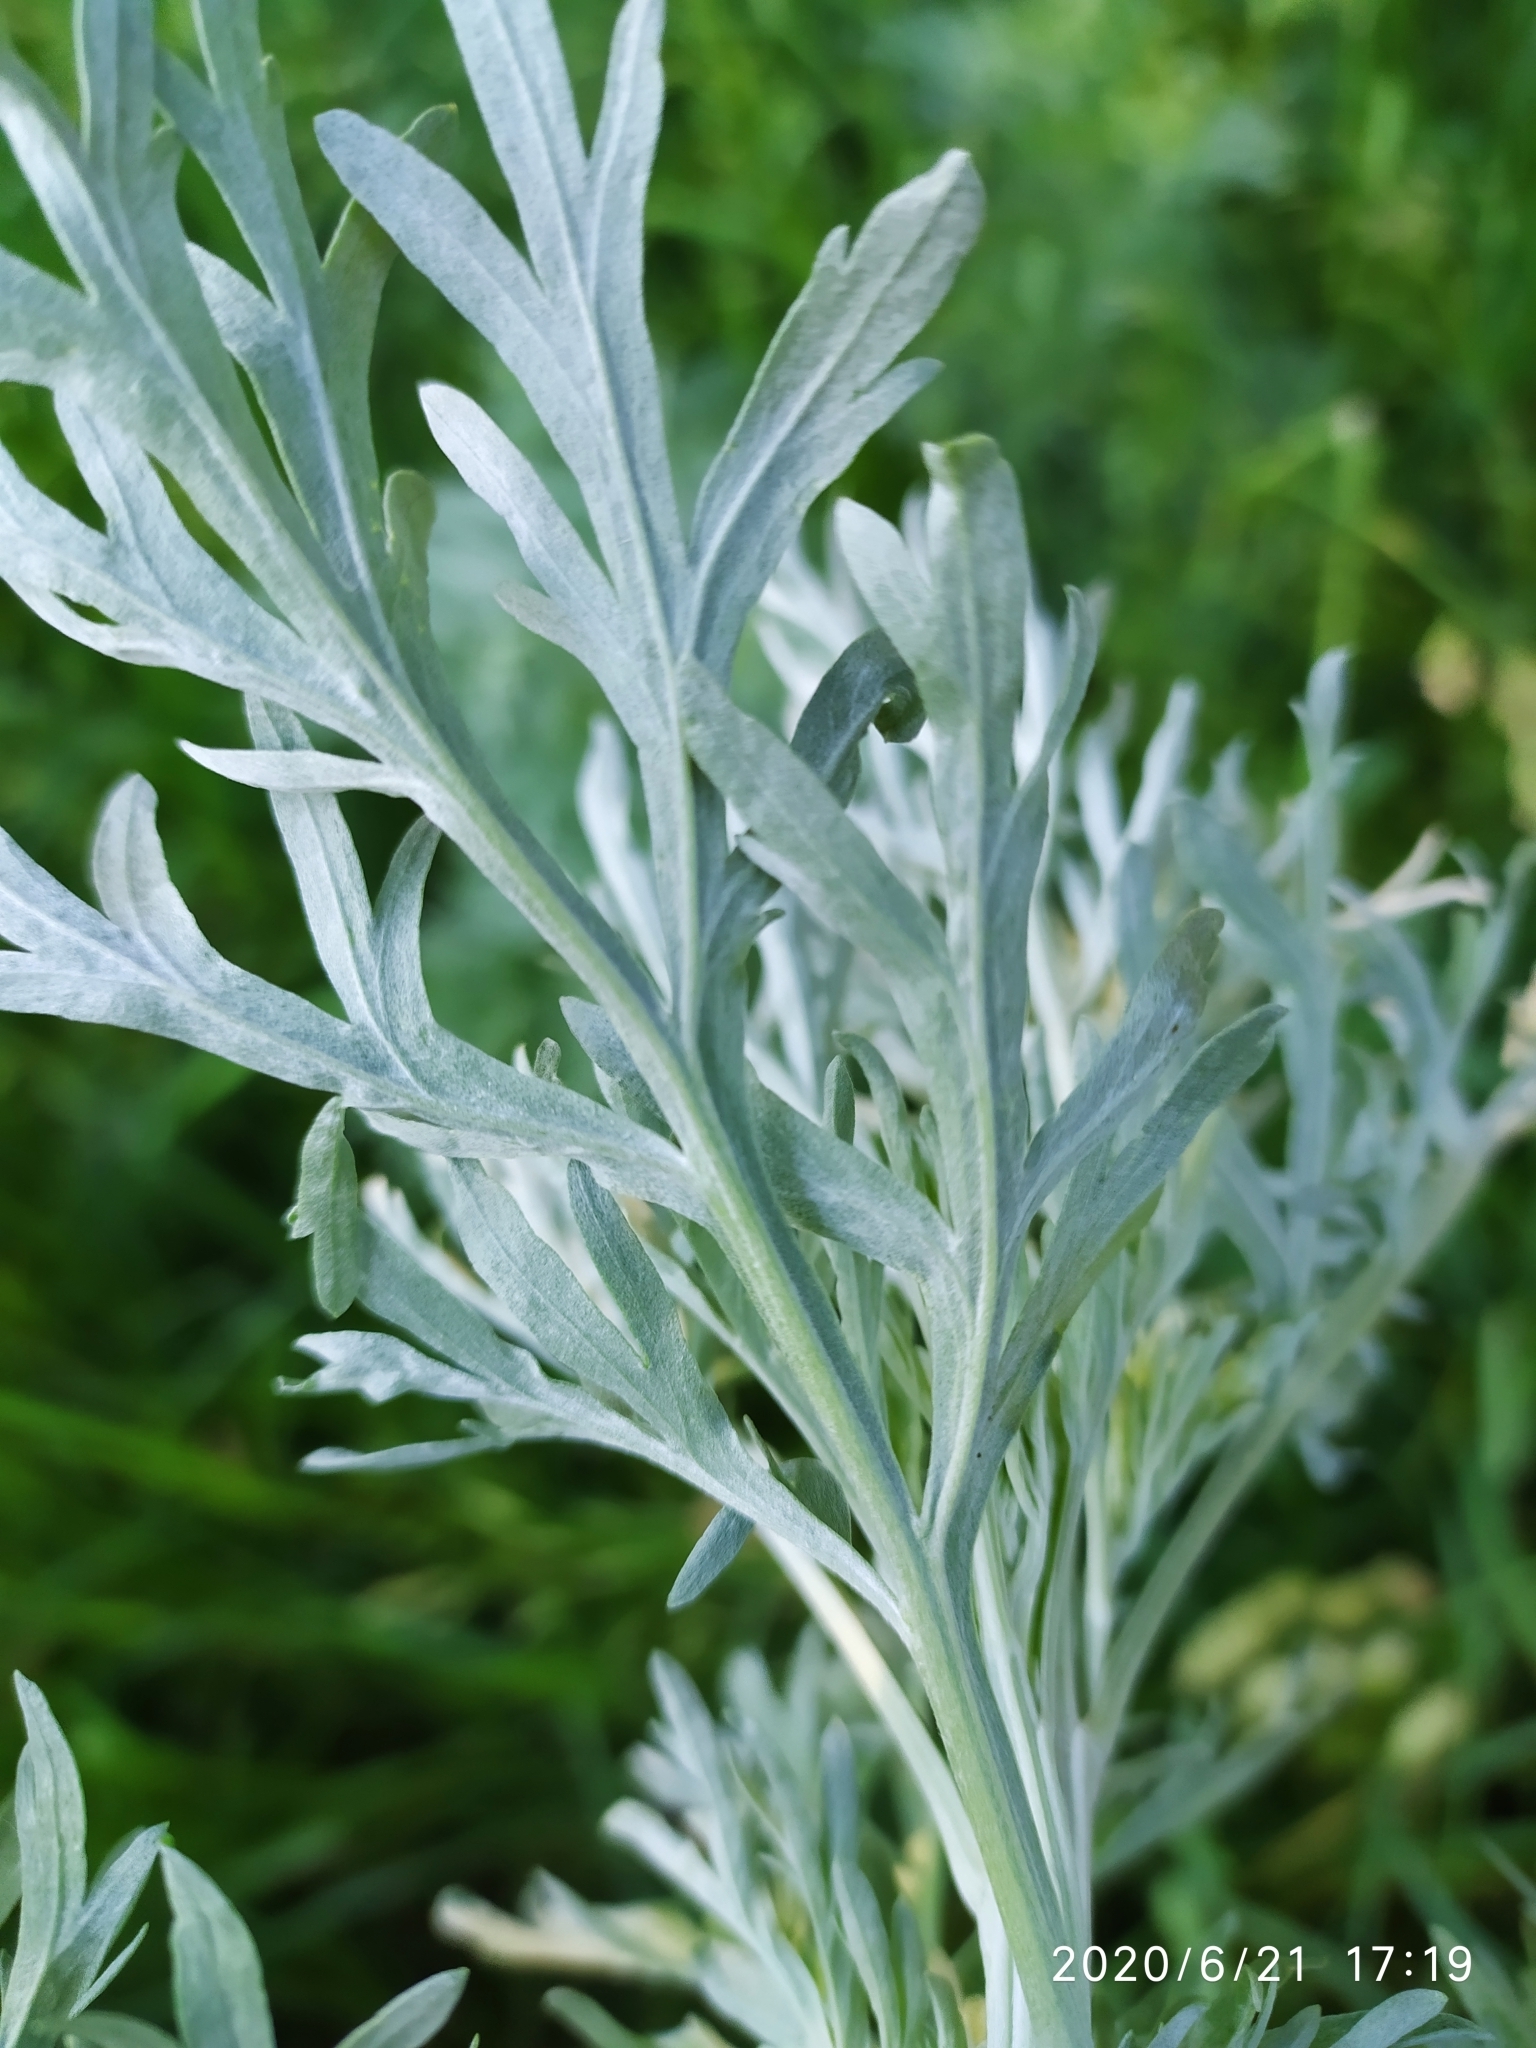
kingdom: Plantae
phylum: Tracheophyta
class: Magnoliopsida
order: Asterales
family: Asteraceae
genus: Artemisia
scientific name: Artemisia absinthium
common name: Wormwood
